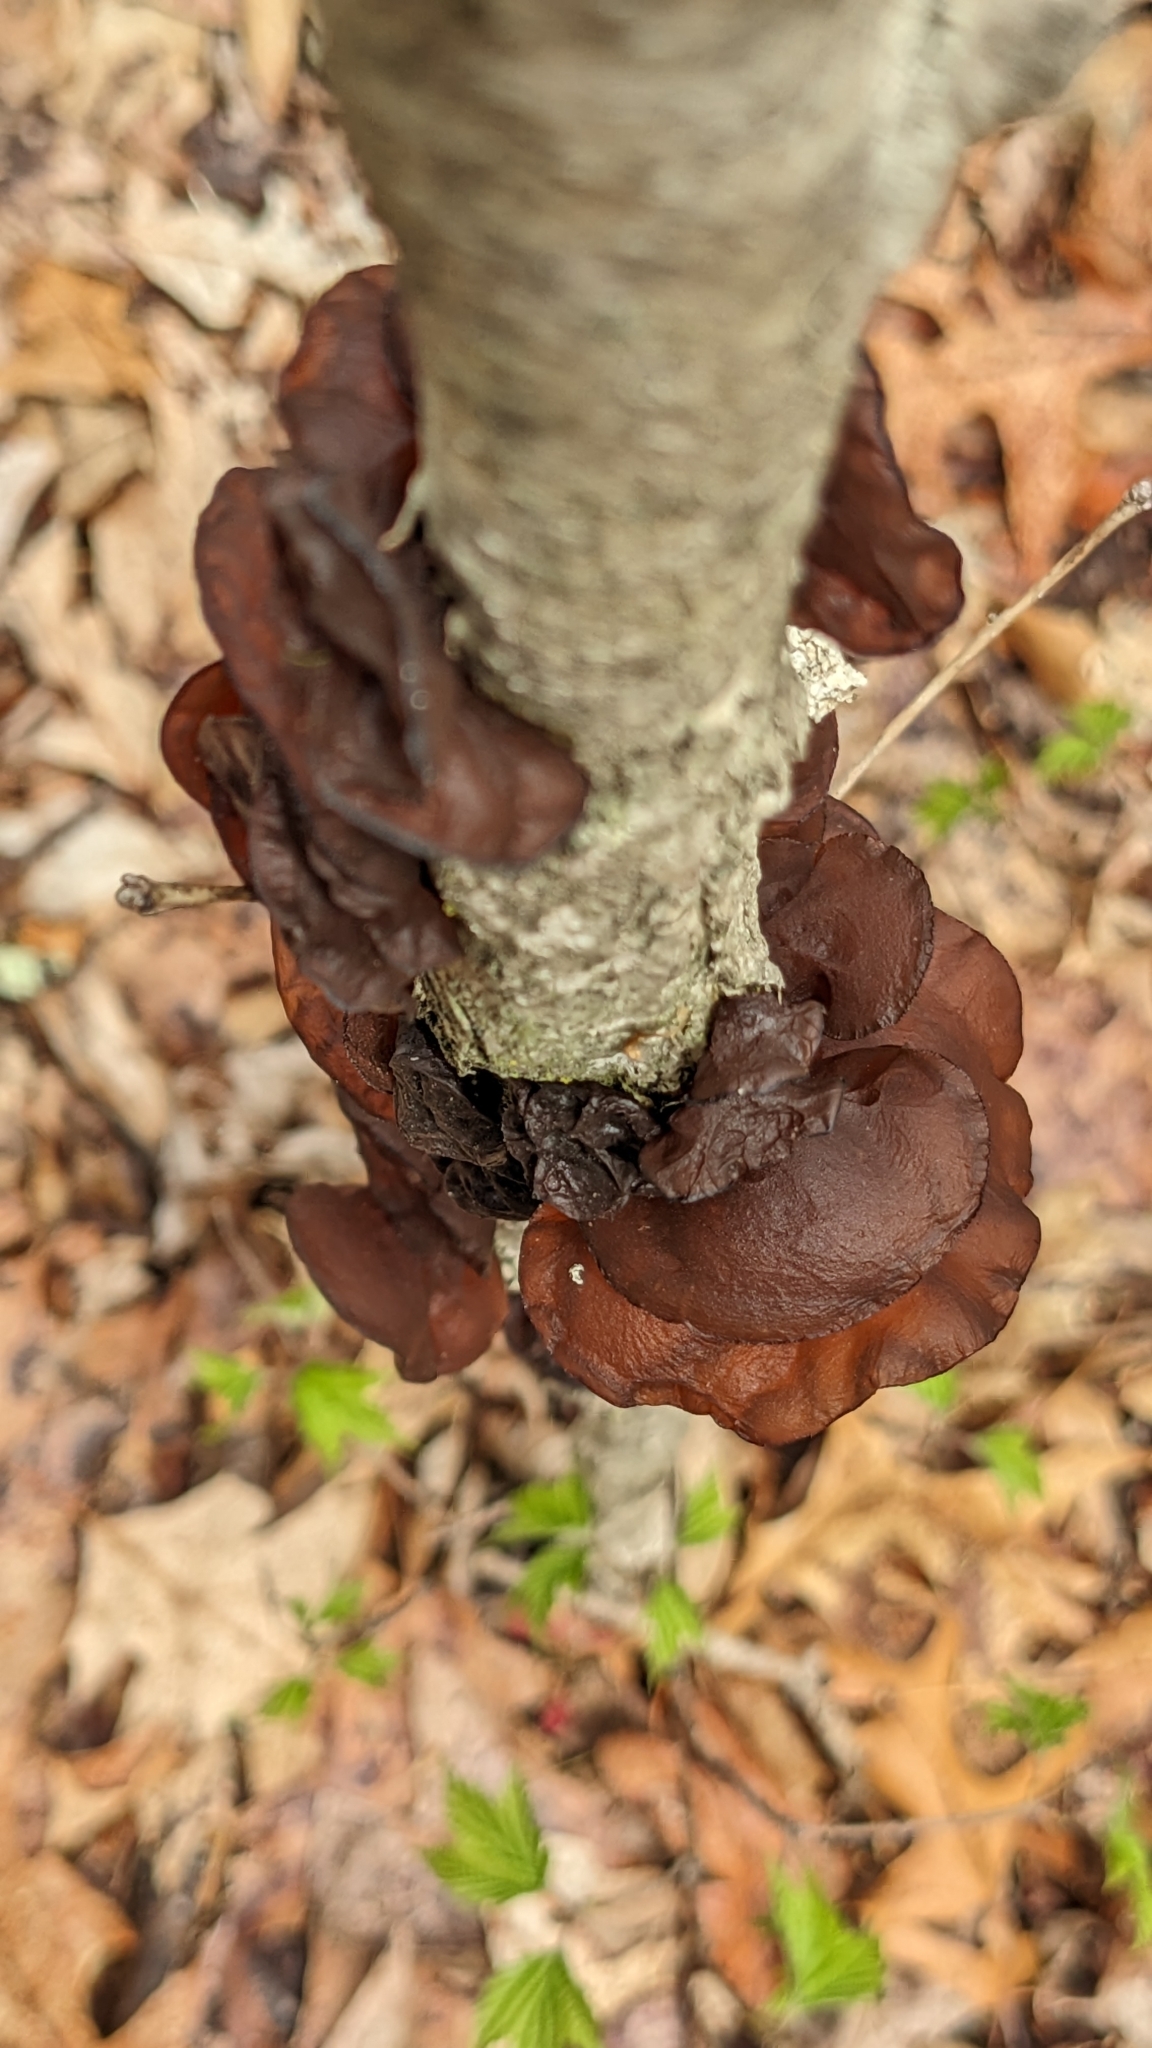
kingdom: Fungi
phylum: Basidiomycota
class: Agaricomycetes
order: Auriculariales
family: Auriculariaceae
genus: Exidia
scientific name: Exidia
